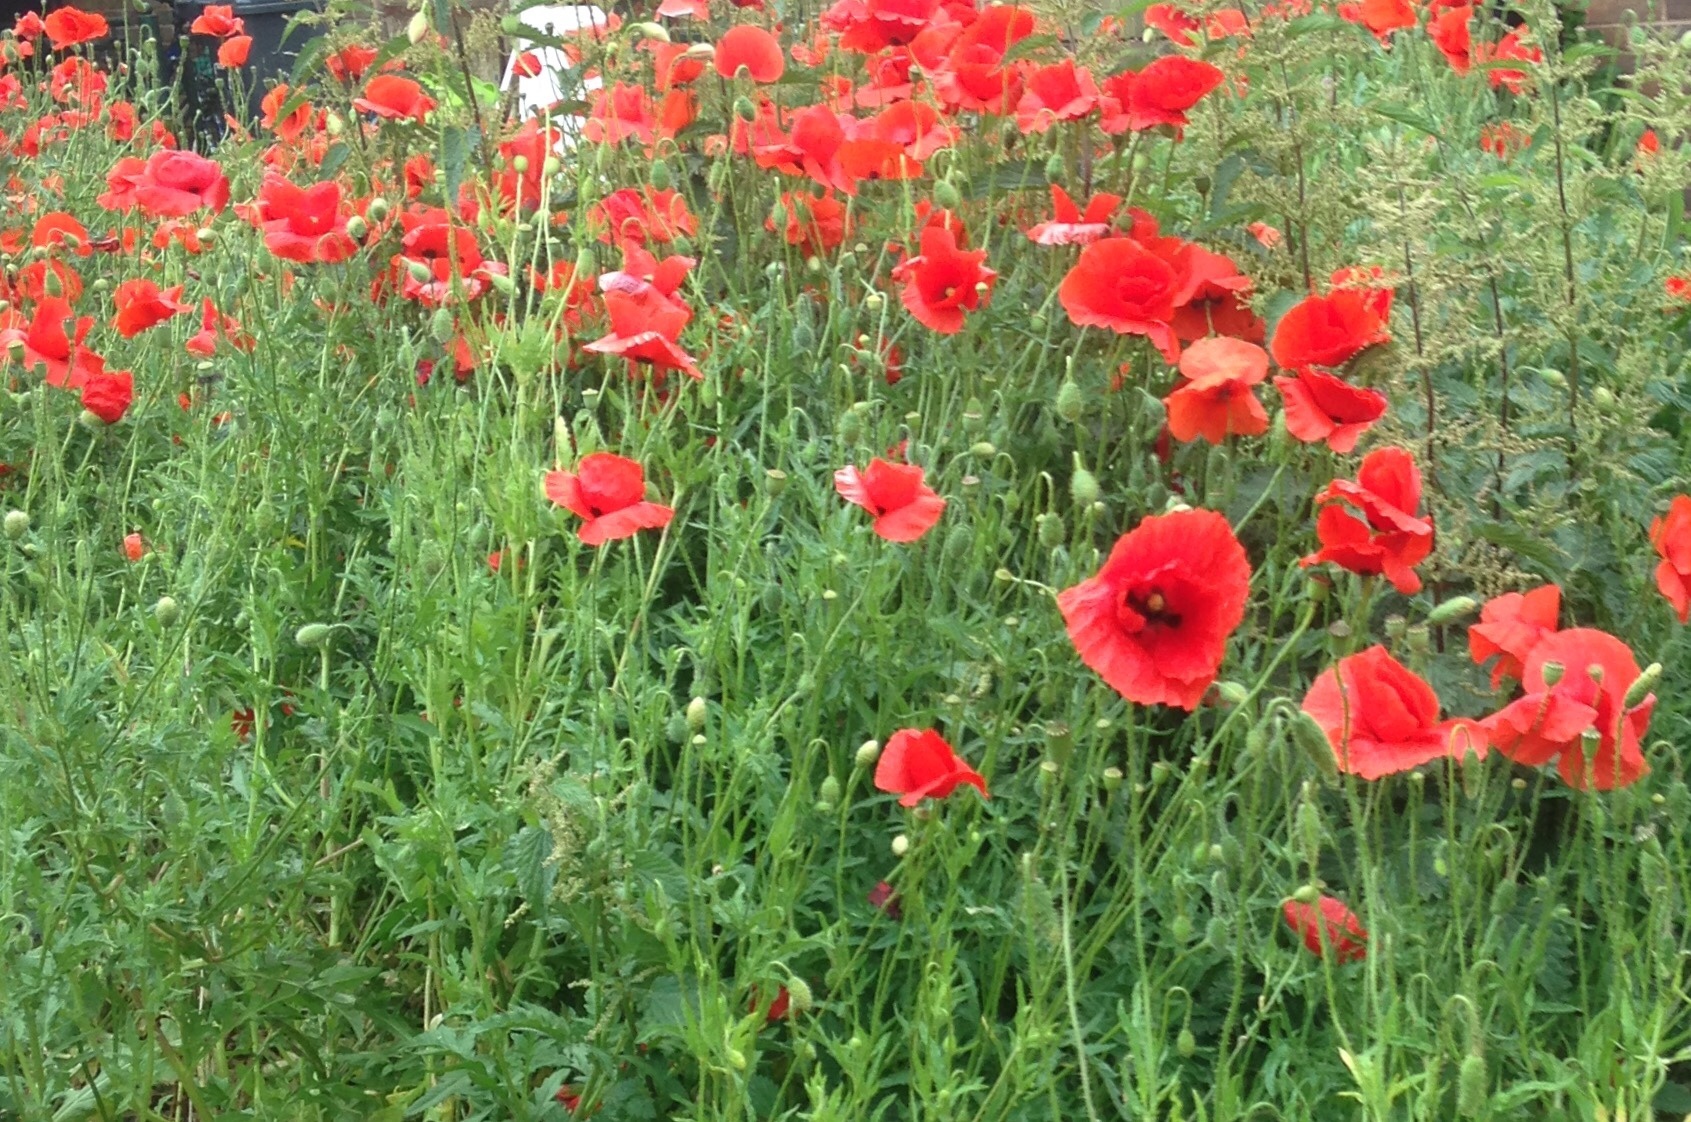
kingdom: Plantae
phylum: Tracheophyta
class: Magnoliopsida
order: Ranunculales
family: Papaveraceae
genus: Papaver
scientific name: Papaver rhoeas
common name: Corn poppy
